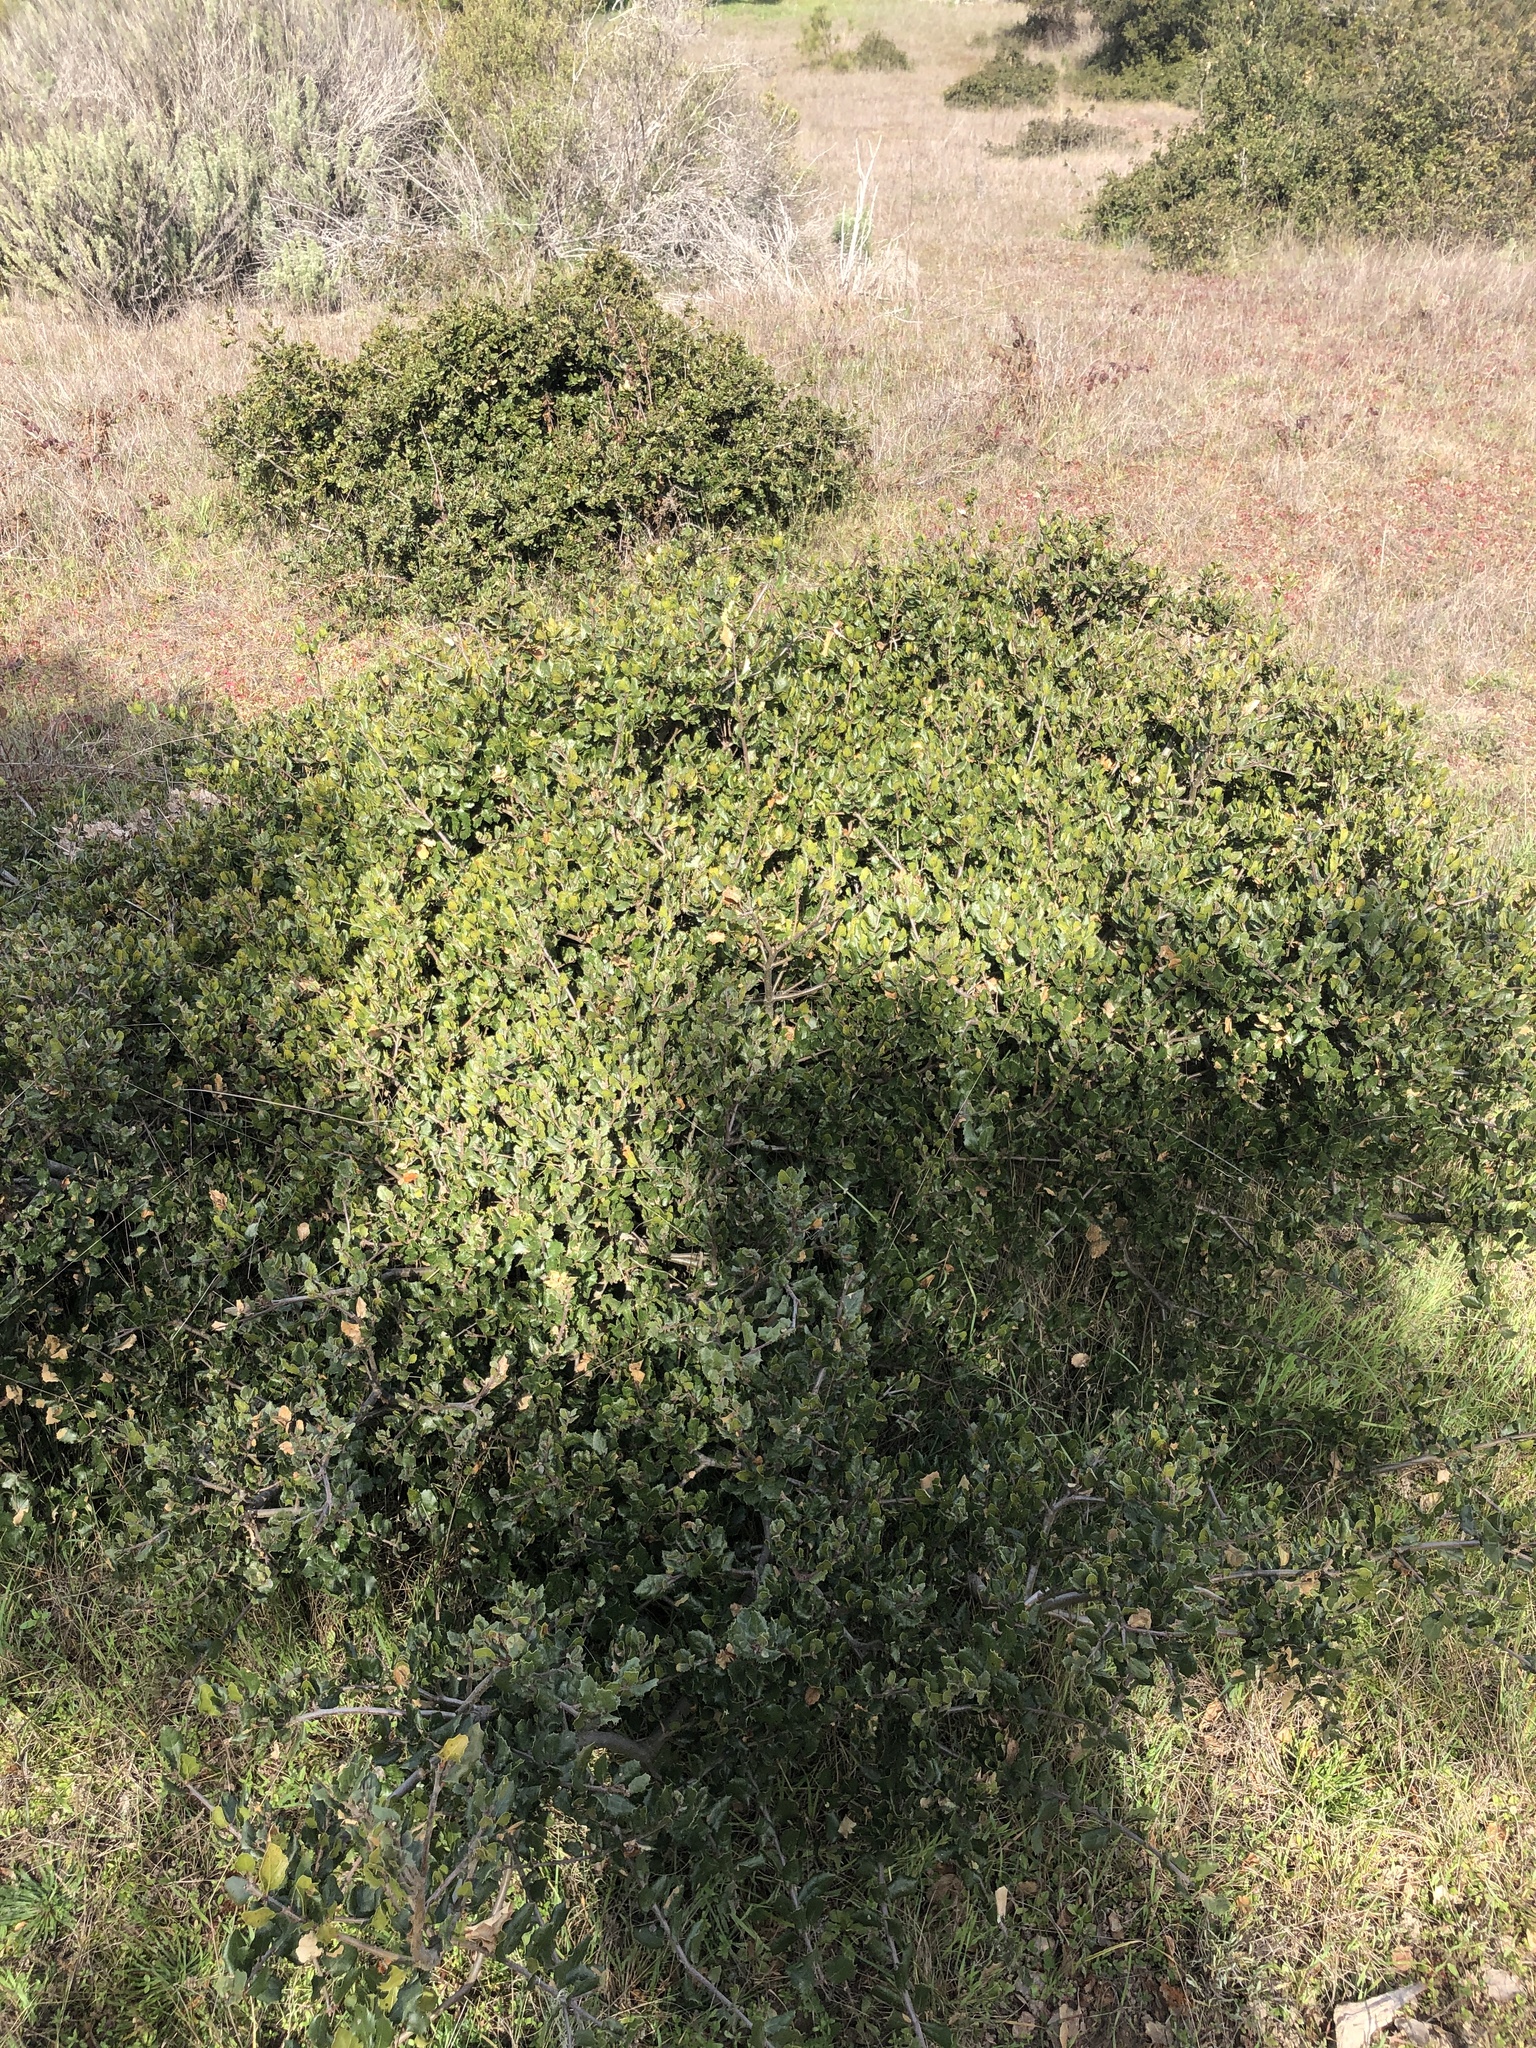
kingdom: Plantae
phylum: Tracheophyta
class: Magnoliopsida
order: Fagales
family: Fagaceae
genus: Quercus
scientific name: Quercus agrifolia
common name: California live oak
